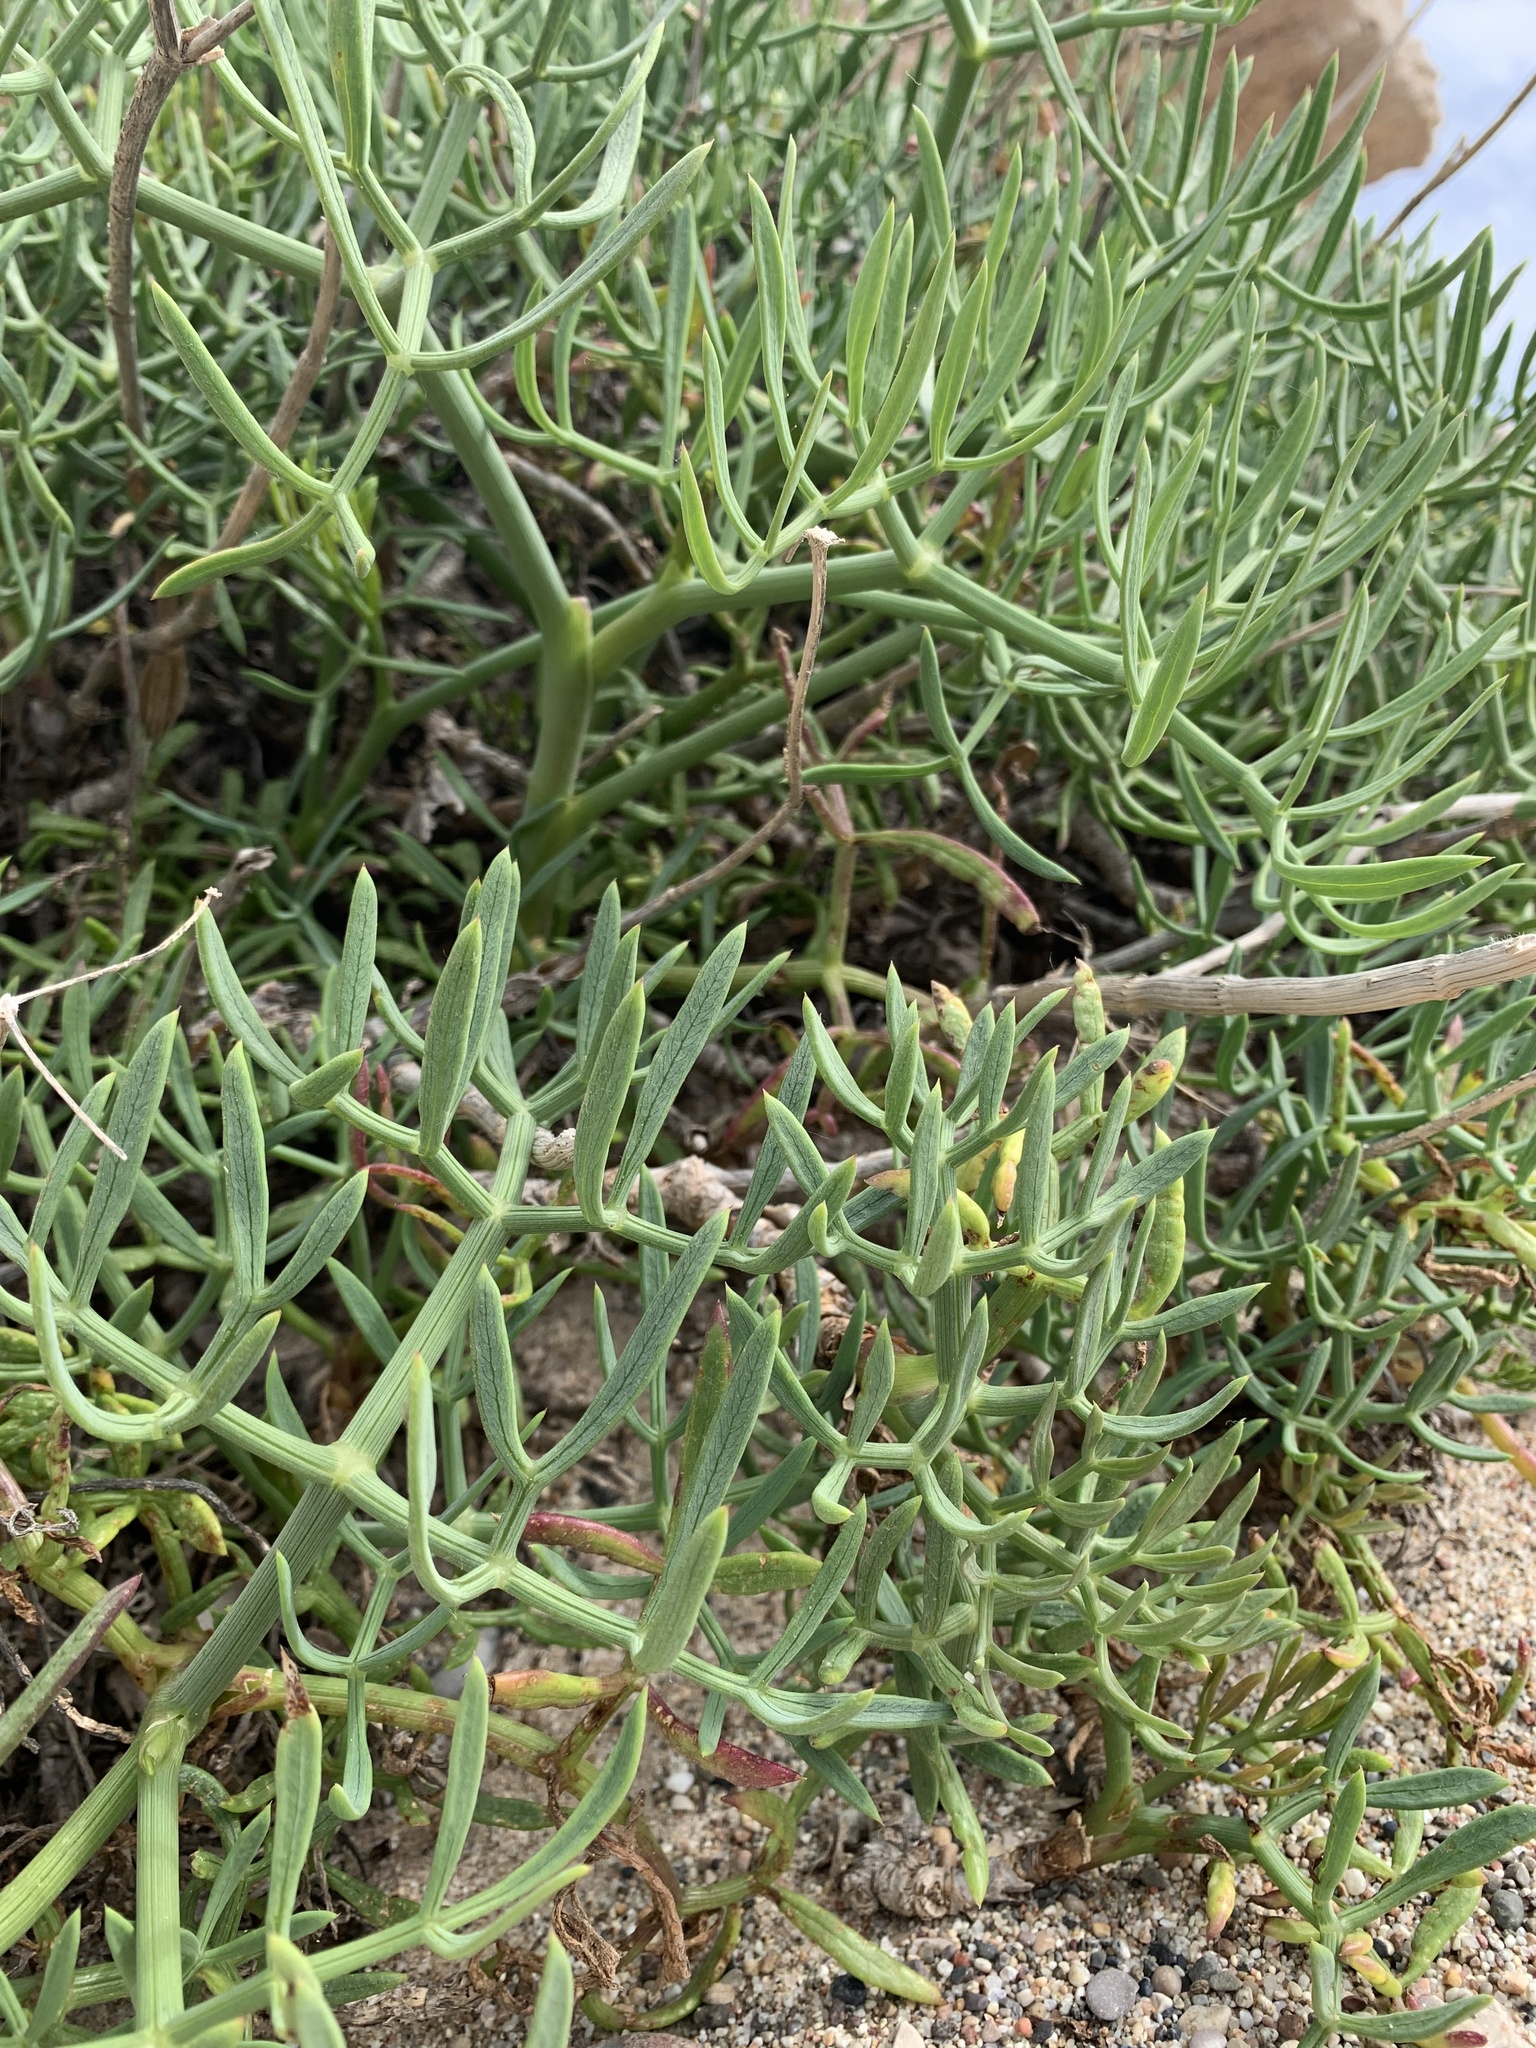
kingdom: Plantae
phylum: Tracheophyta
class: Magnoliopsida
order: Apiales
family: Apiaceae
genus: Crithmum
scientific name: Crithmum maritimum
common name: Rock samphire
